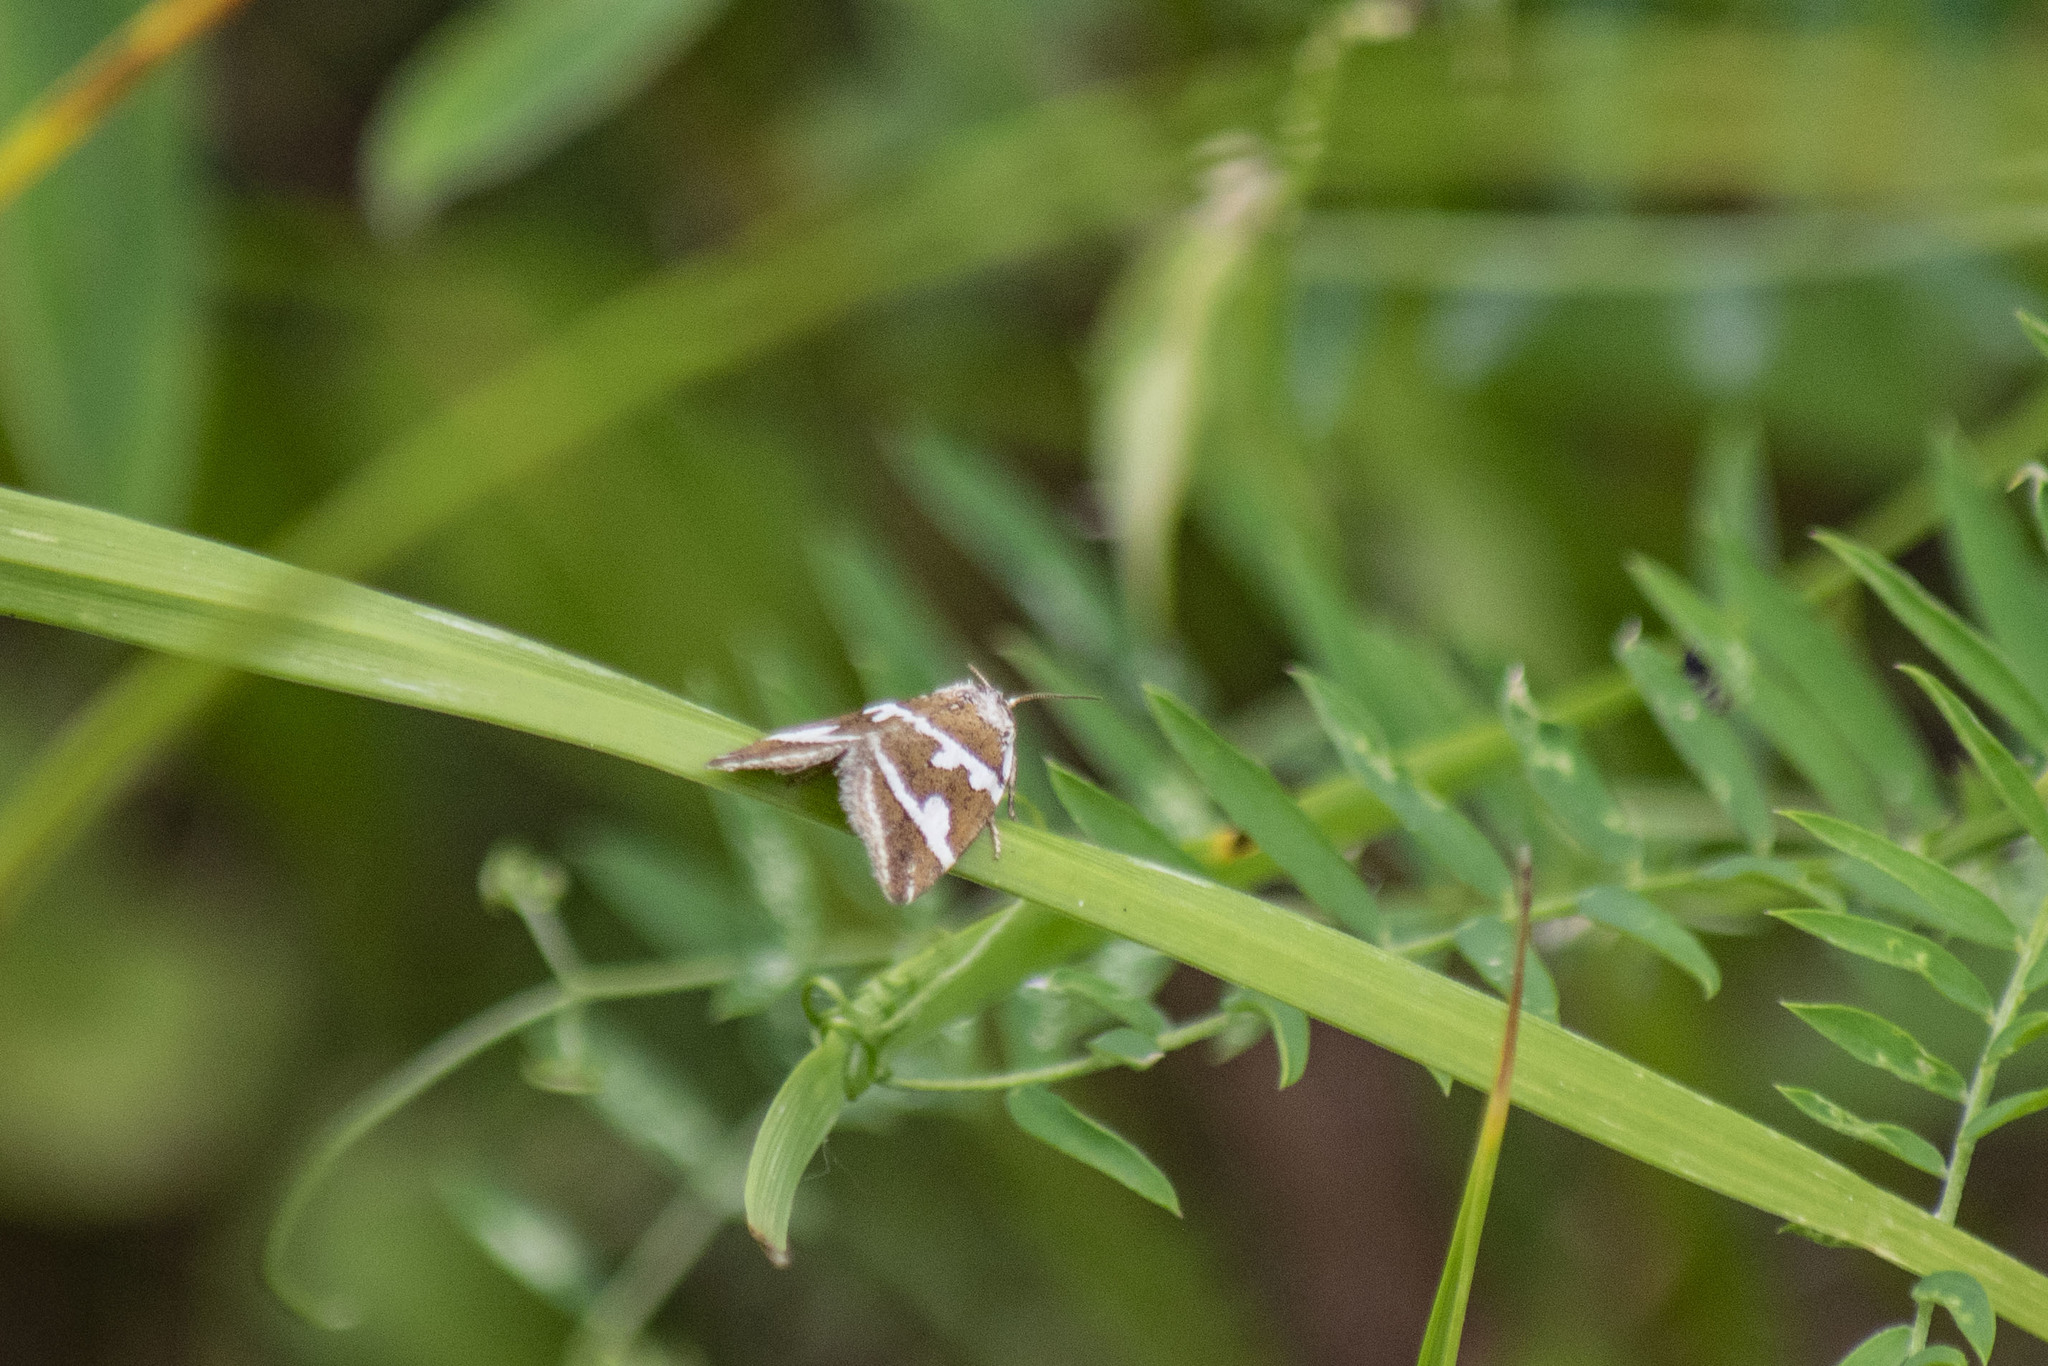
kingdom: Animalia
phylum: Arthropoda
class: Insecta
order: Lepidoptera
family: Noctuidae
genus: Deltote
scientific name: Deltote bankiana
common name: Silver barred
